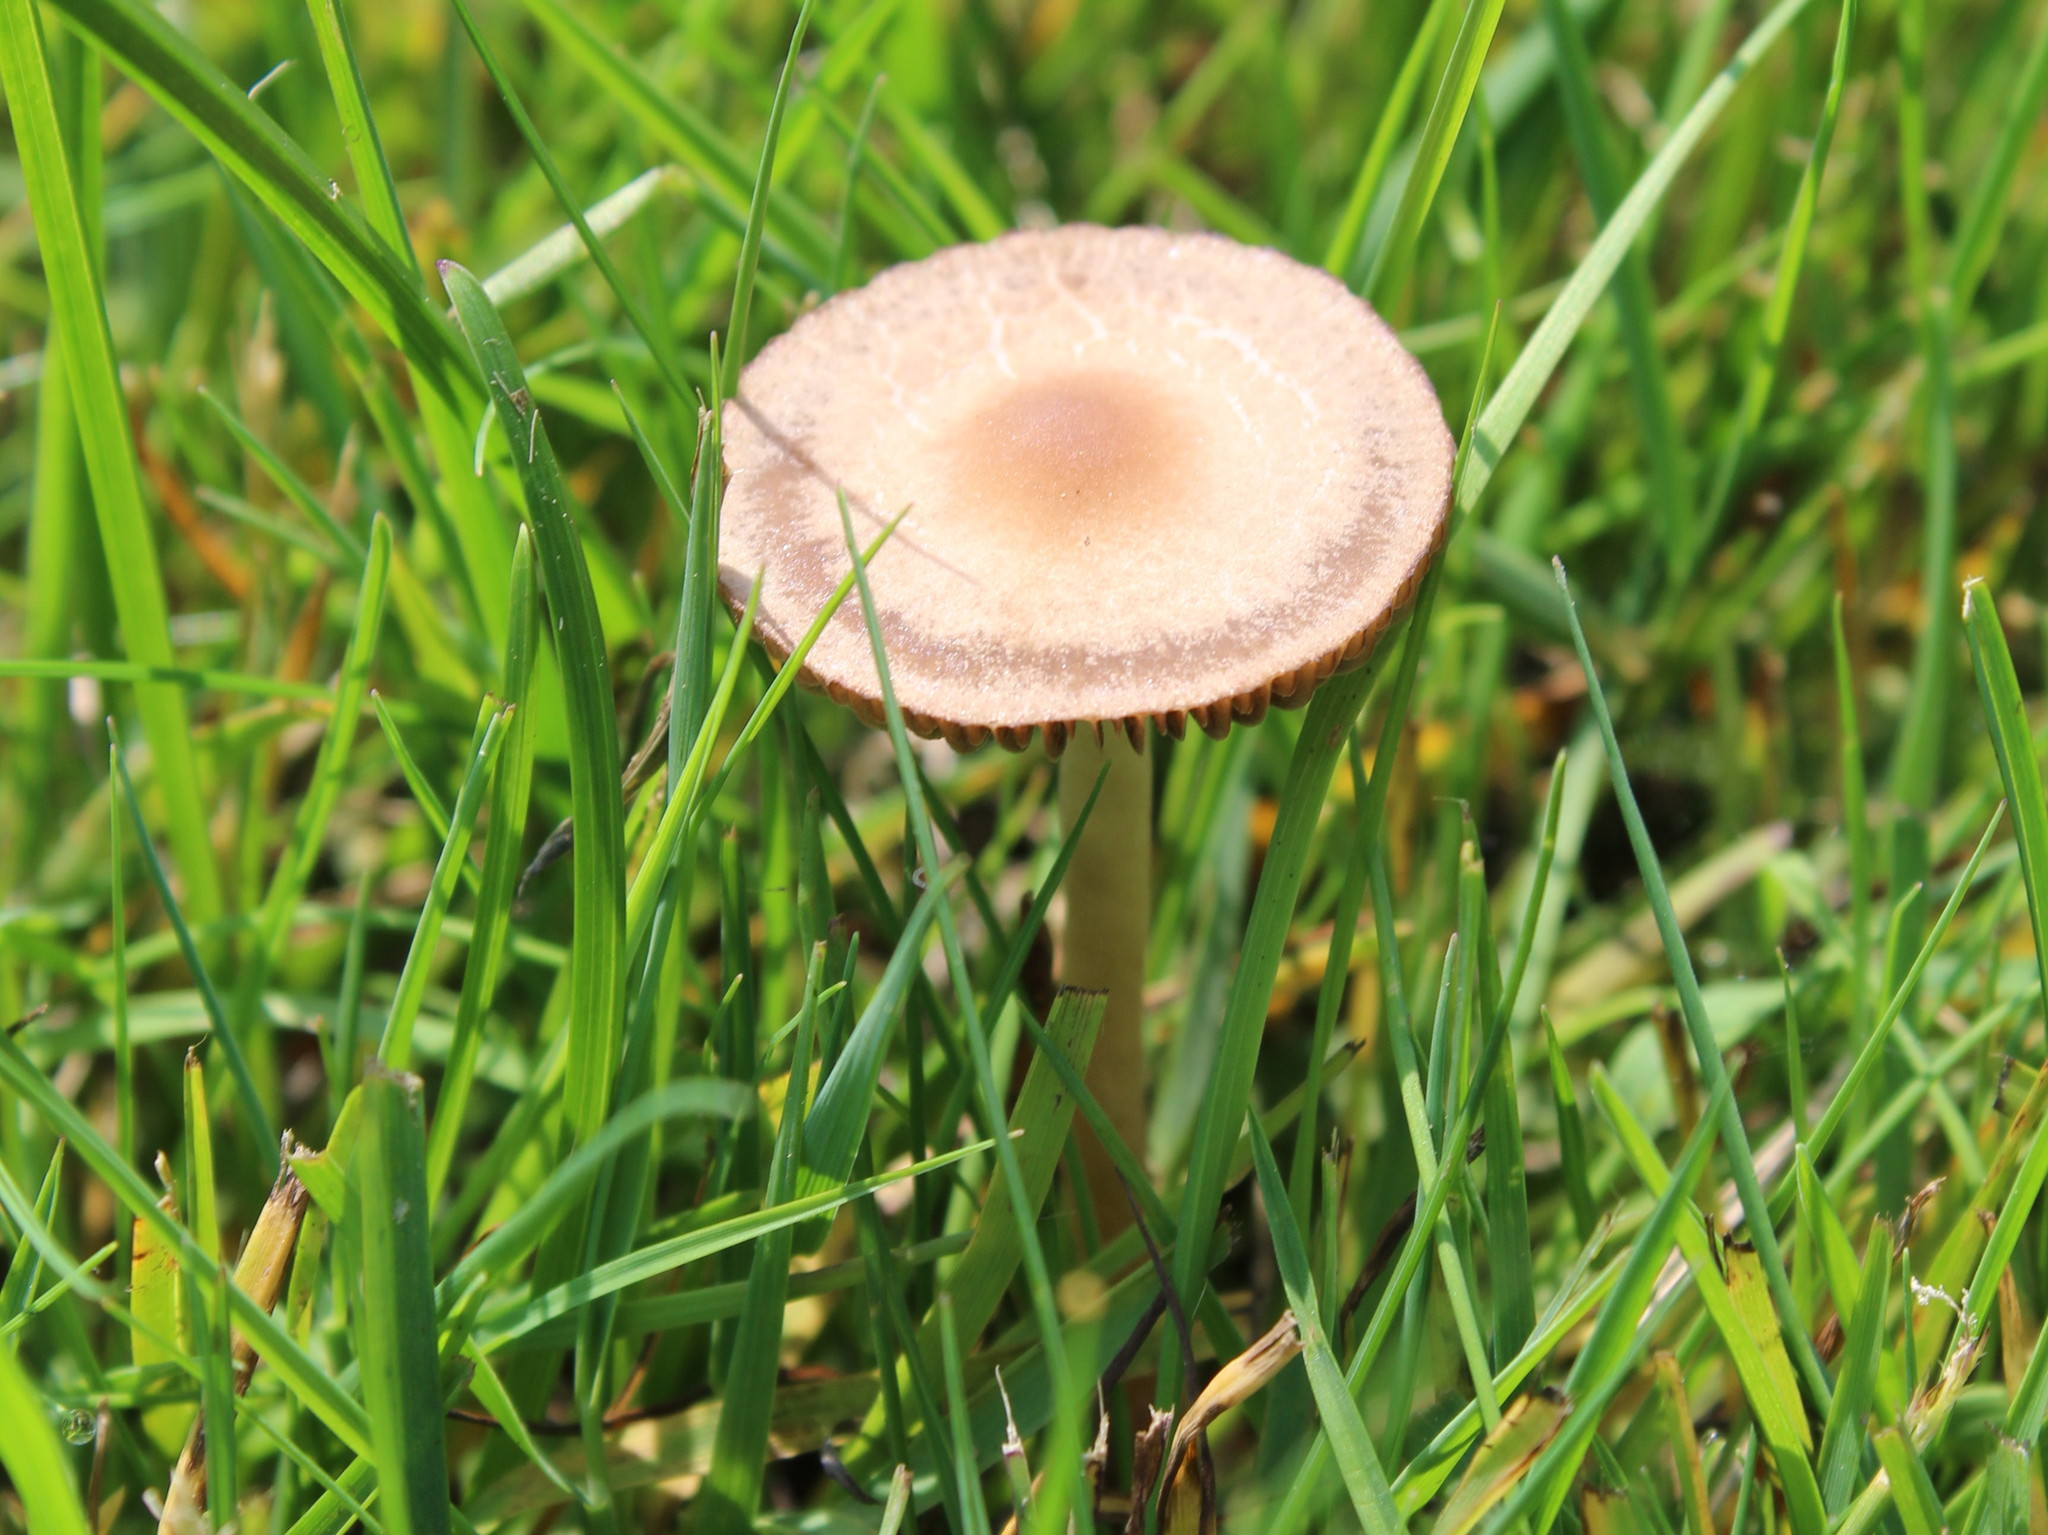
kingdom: Fungi
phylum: Basidiomycota
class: Agaricomycetes
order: Agaricales
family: Bolbitiaceae
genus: Panaeolina
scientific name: Panaeolina foenisecii
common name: Brown hay cap
